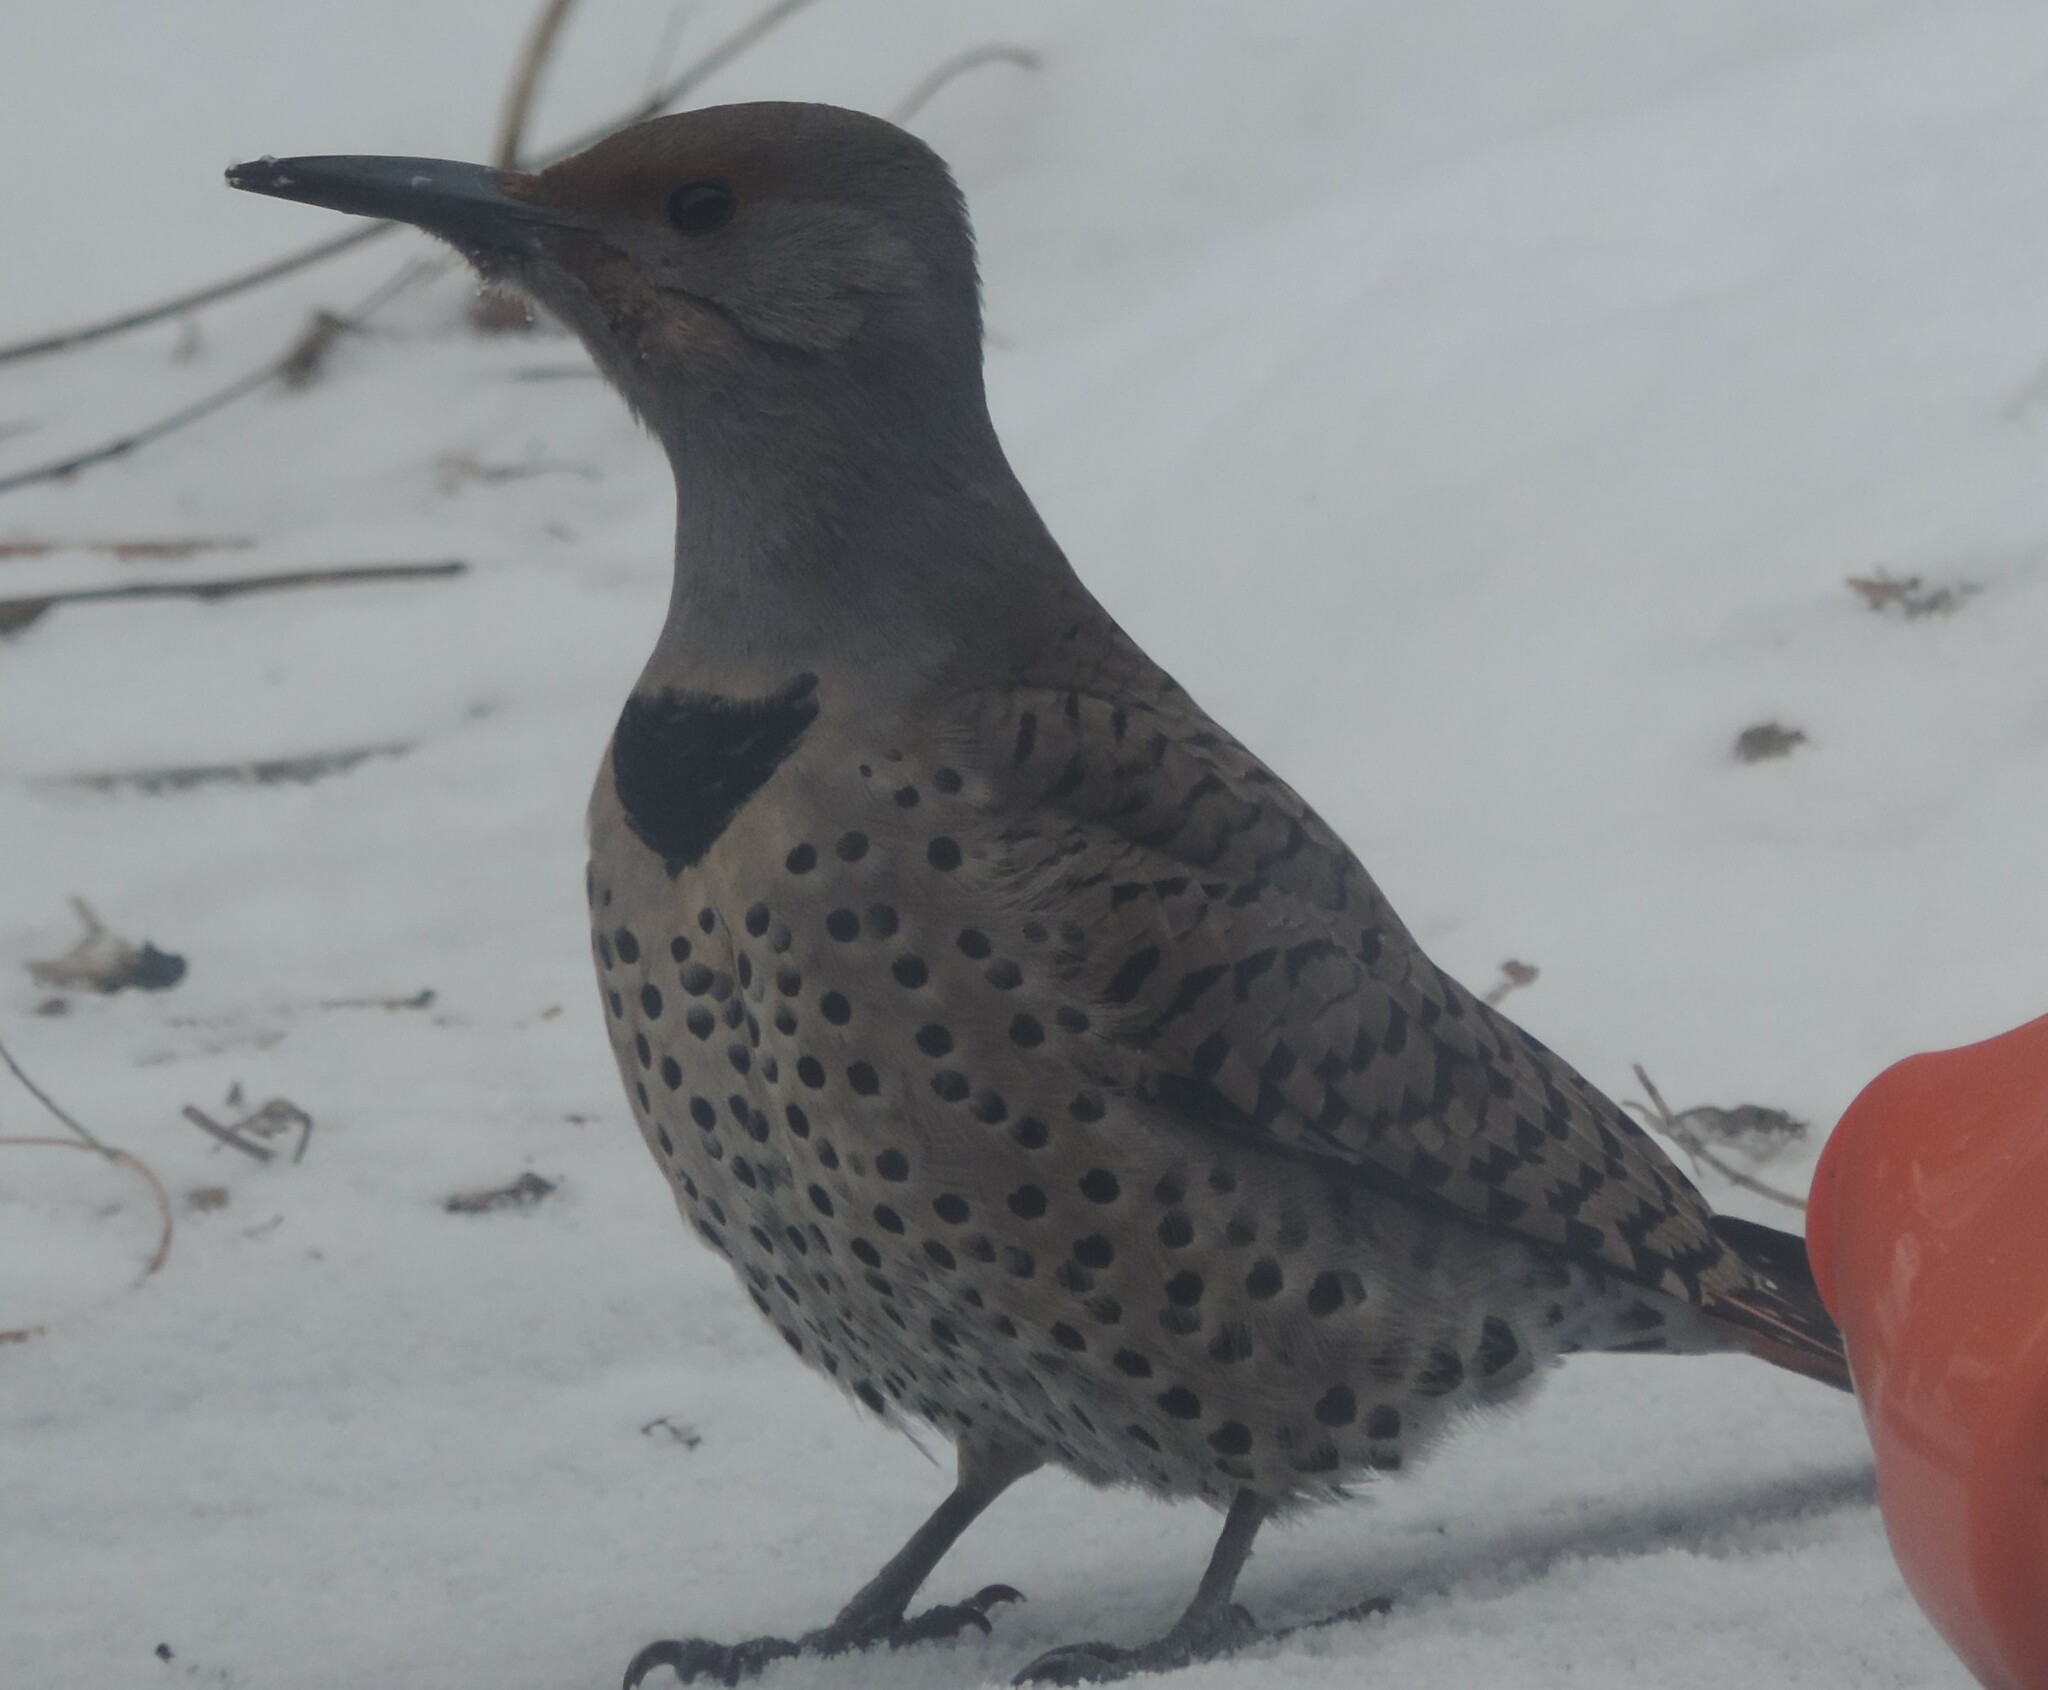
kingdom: Animalia
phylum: Chordata
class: Aves
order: Piciformes
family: Picidae
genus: Colaptes
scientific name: Colaptes auratus
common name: Northern flicker
